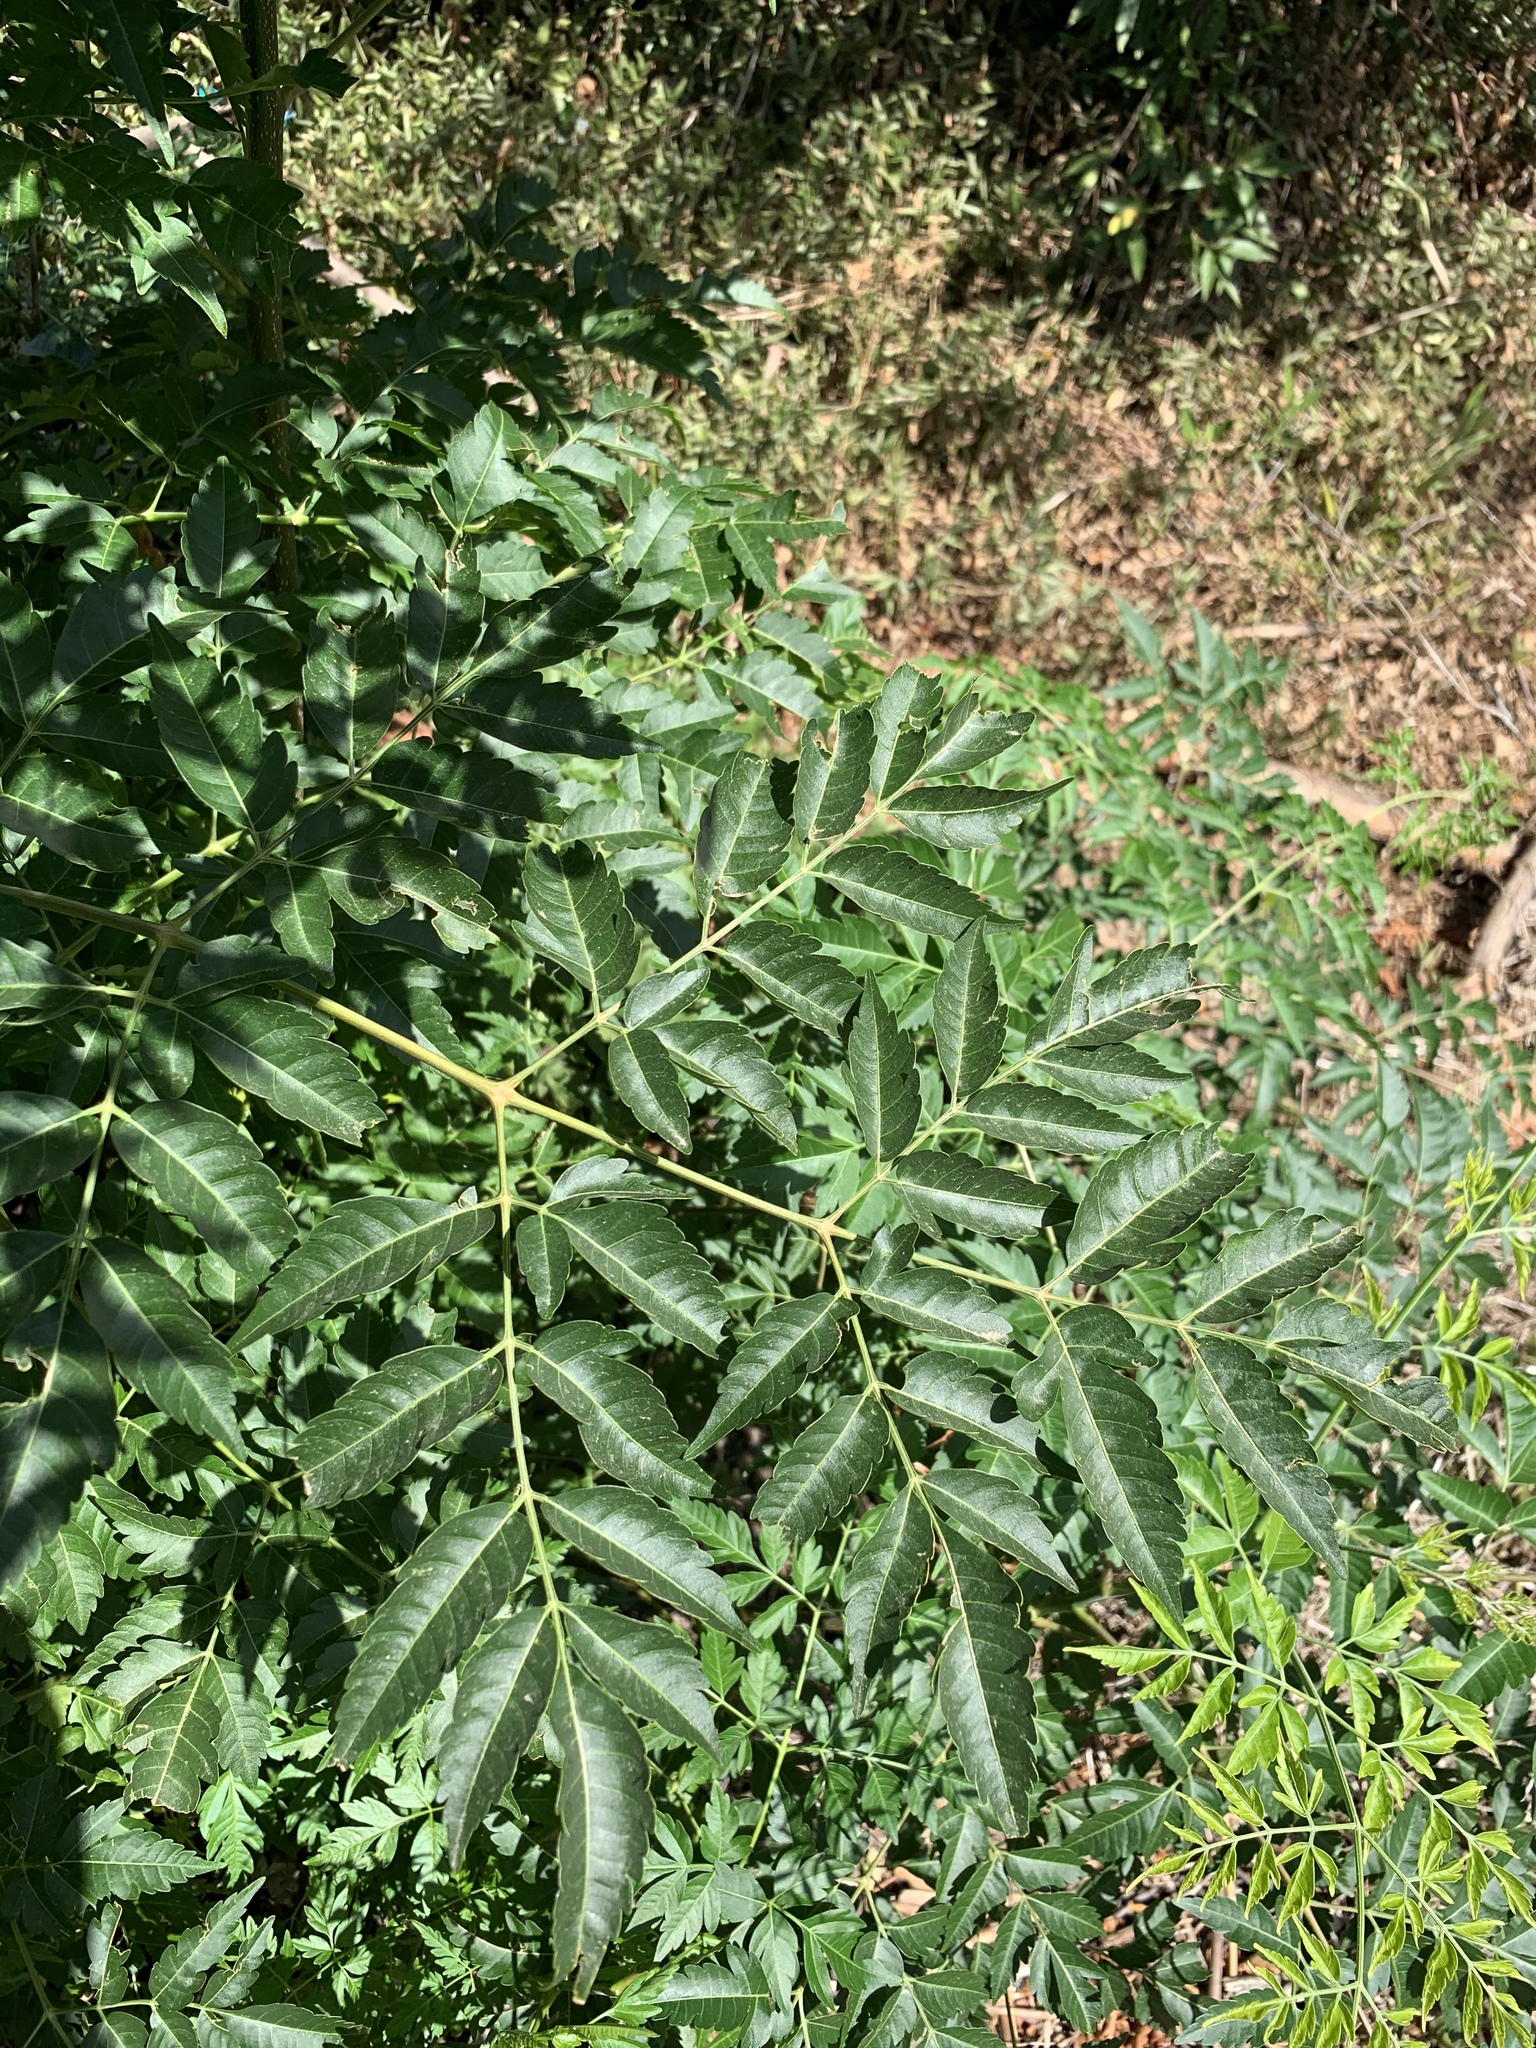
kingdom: Plantae
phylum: Tracheophyta
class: Magnoliopsida
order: Sapindales
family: Meliaceae
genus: Melia
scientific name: Melia azedarach
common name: Chinaberrytree
